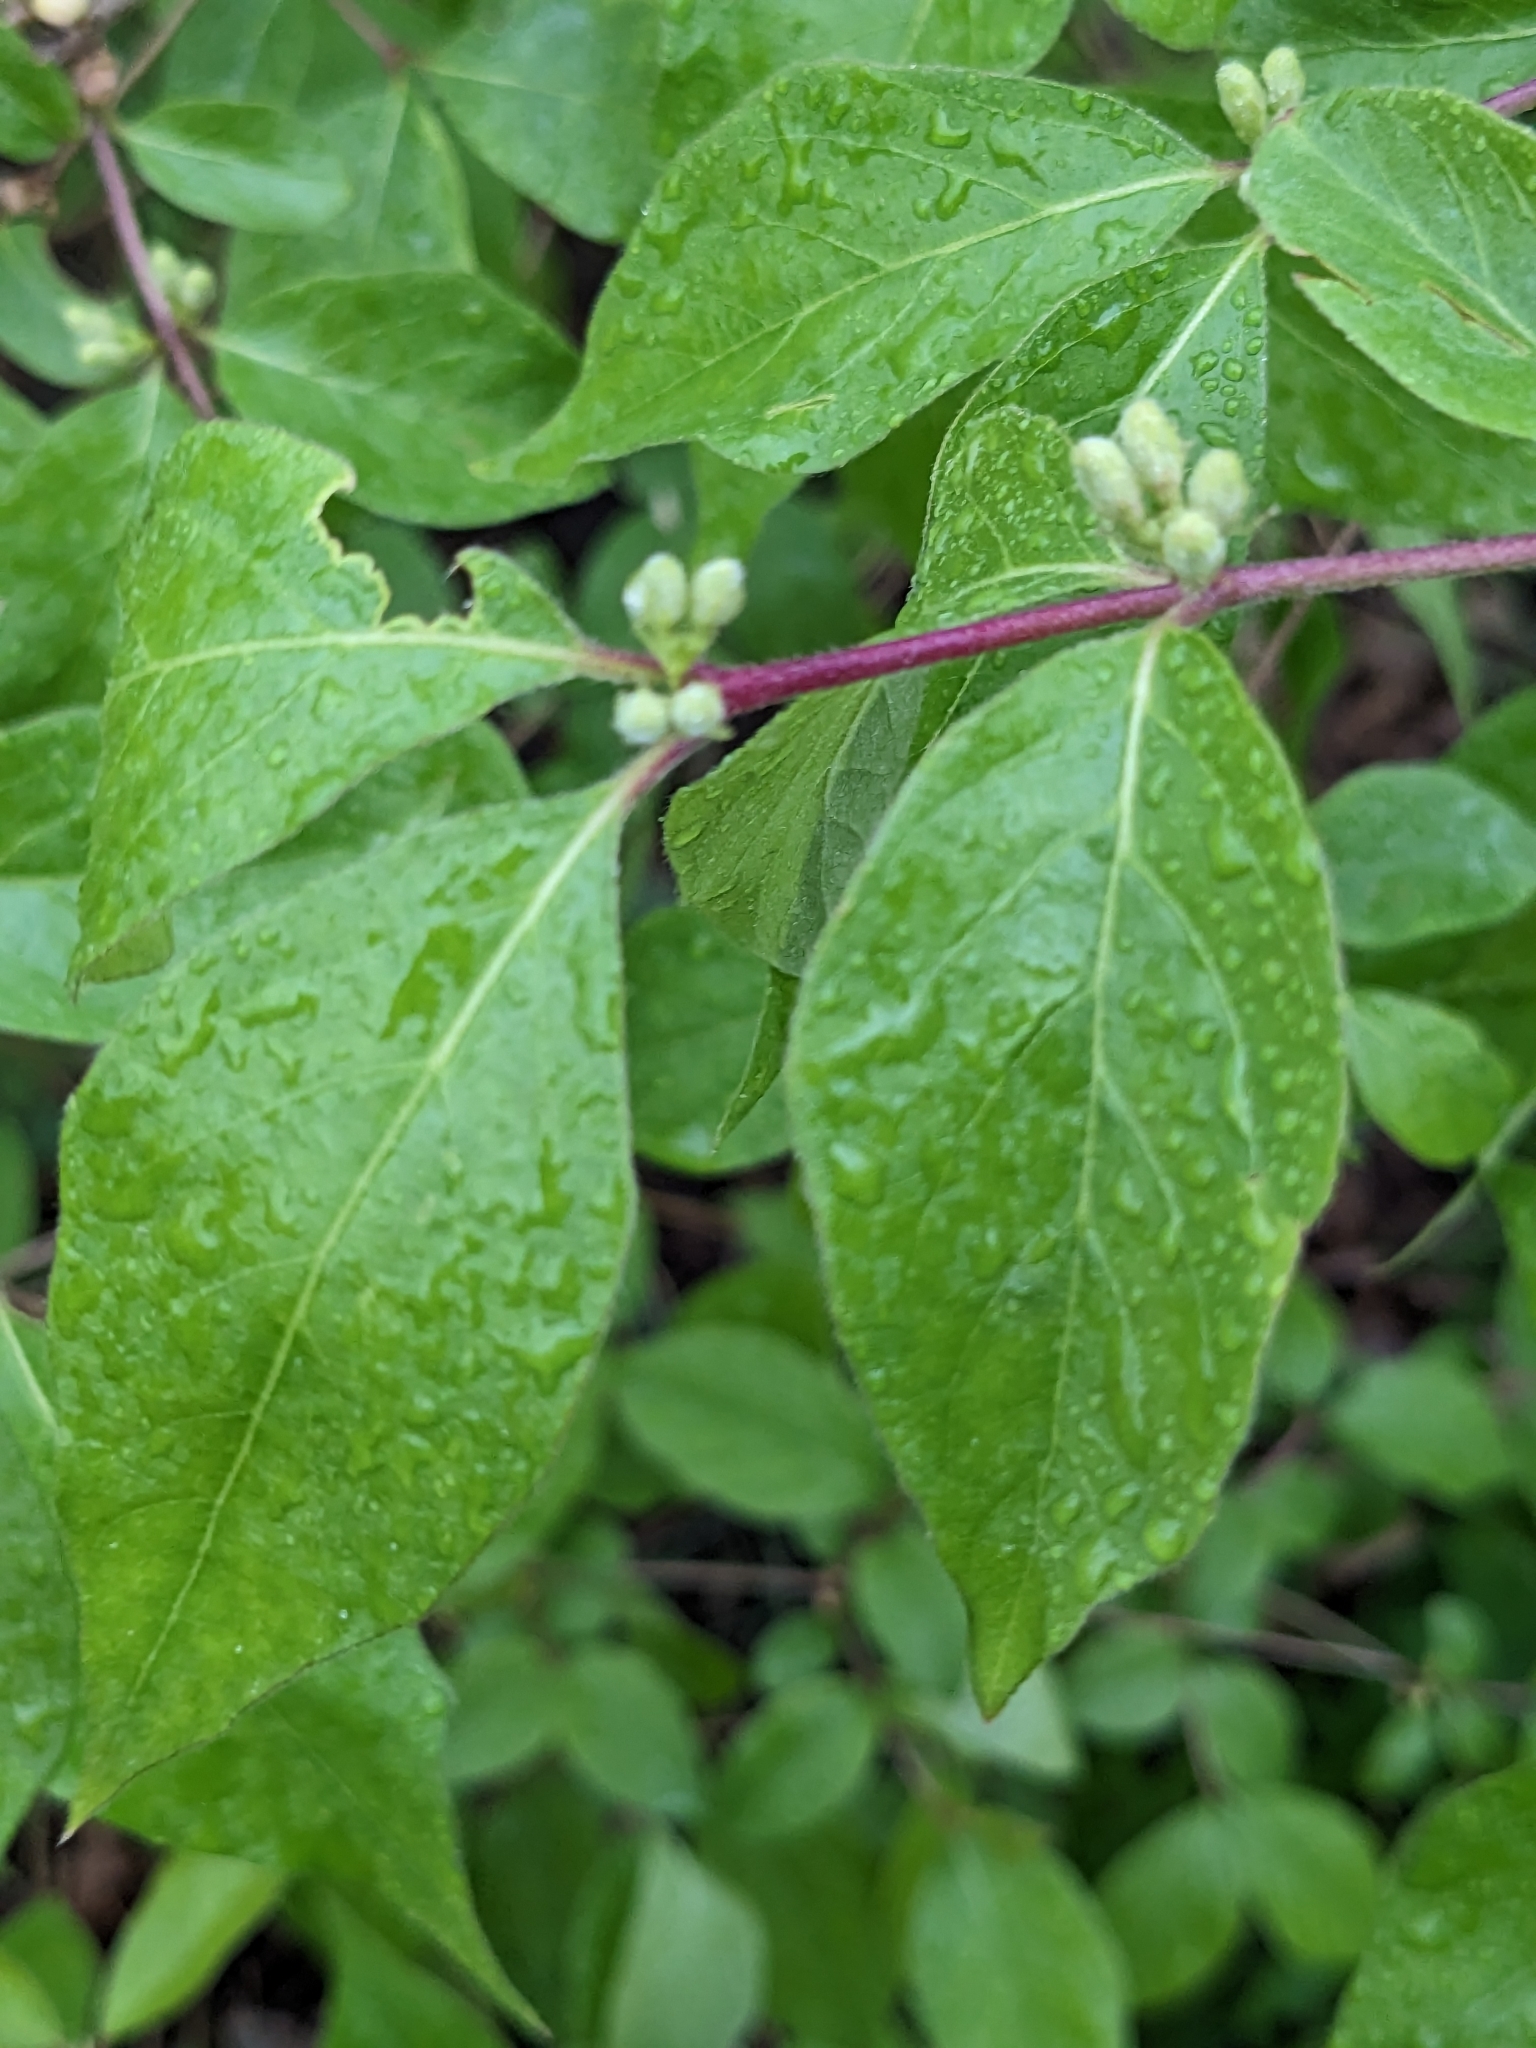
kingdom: Plantae
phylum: Tracheophyta
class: Magnoliopsida
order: Dipsacales
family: Caprifoliaceae
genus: Lonicera
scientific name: Lonicera maackii
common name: Amur honeysuckle
